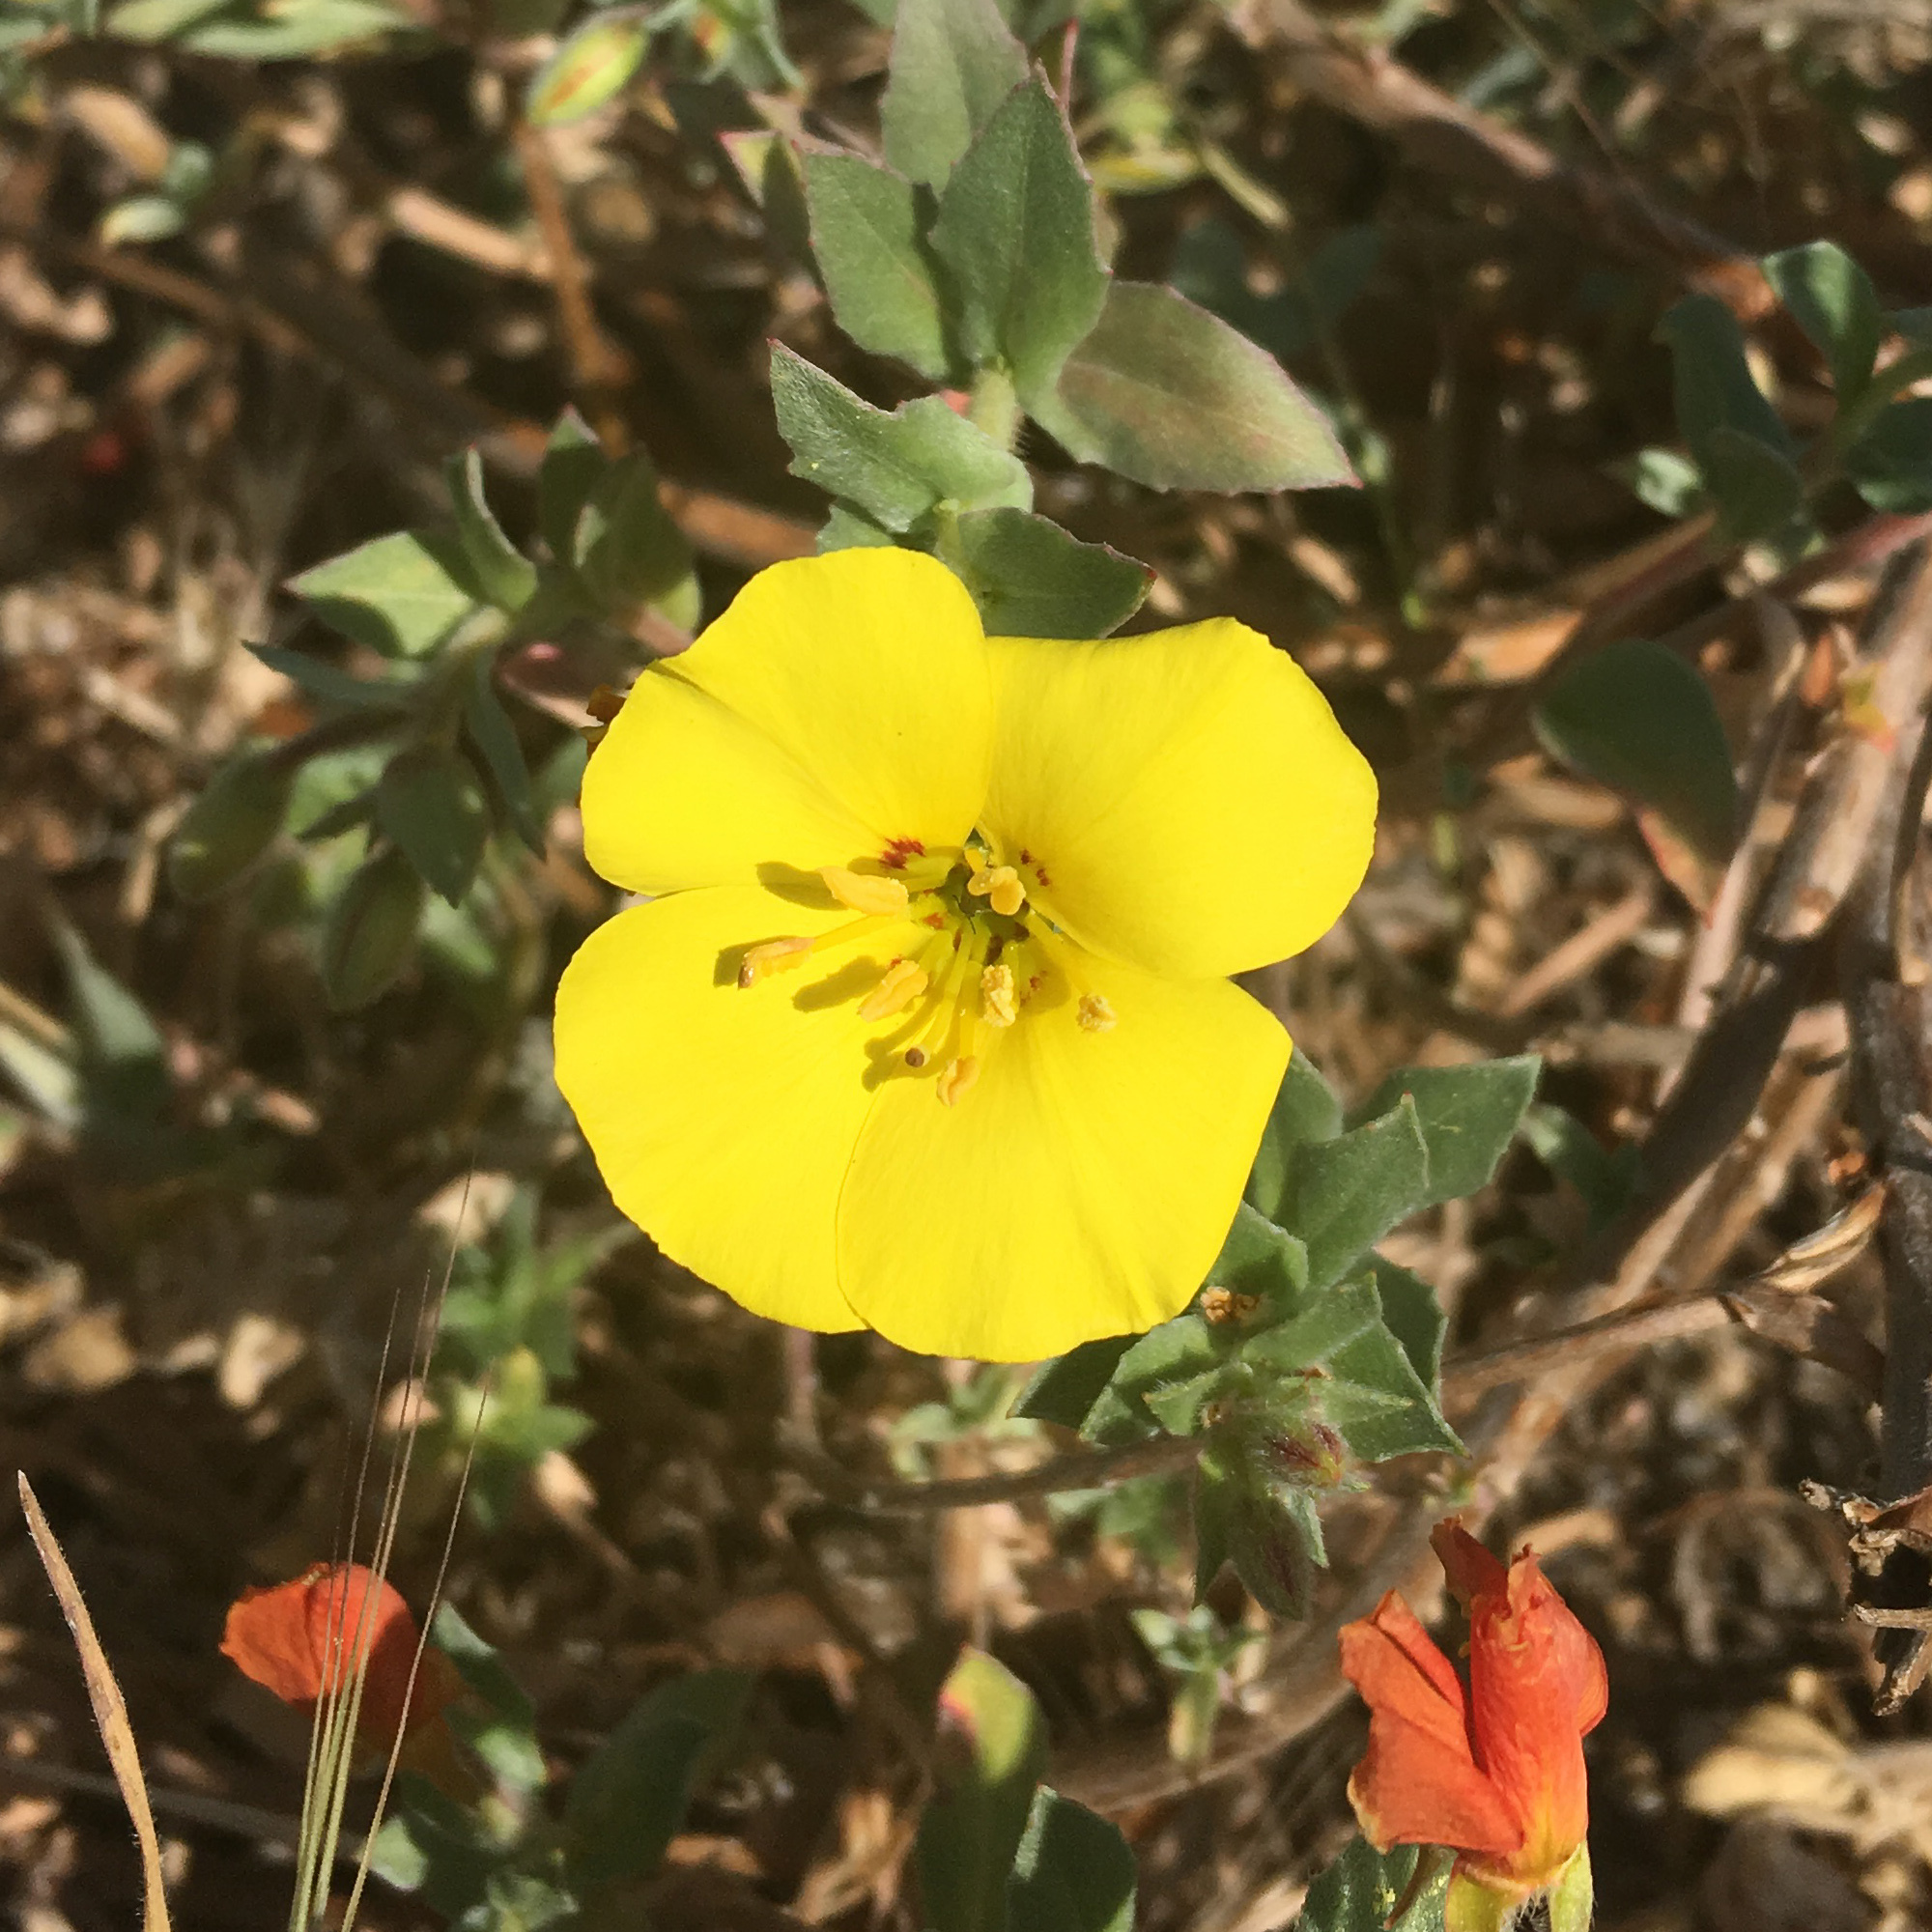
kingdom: Plantae
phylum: Tracheophyta
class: Magnoliopsida
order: Myrtales
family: Onagraceae
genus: Camissoniopsis
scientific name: Camissoniopsis cheiranthifolia
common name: Beach suncup
